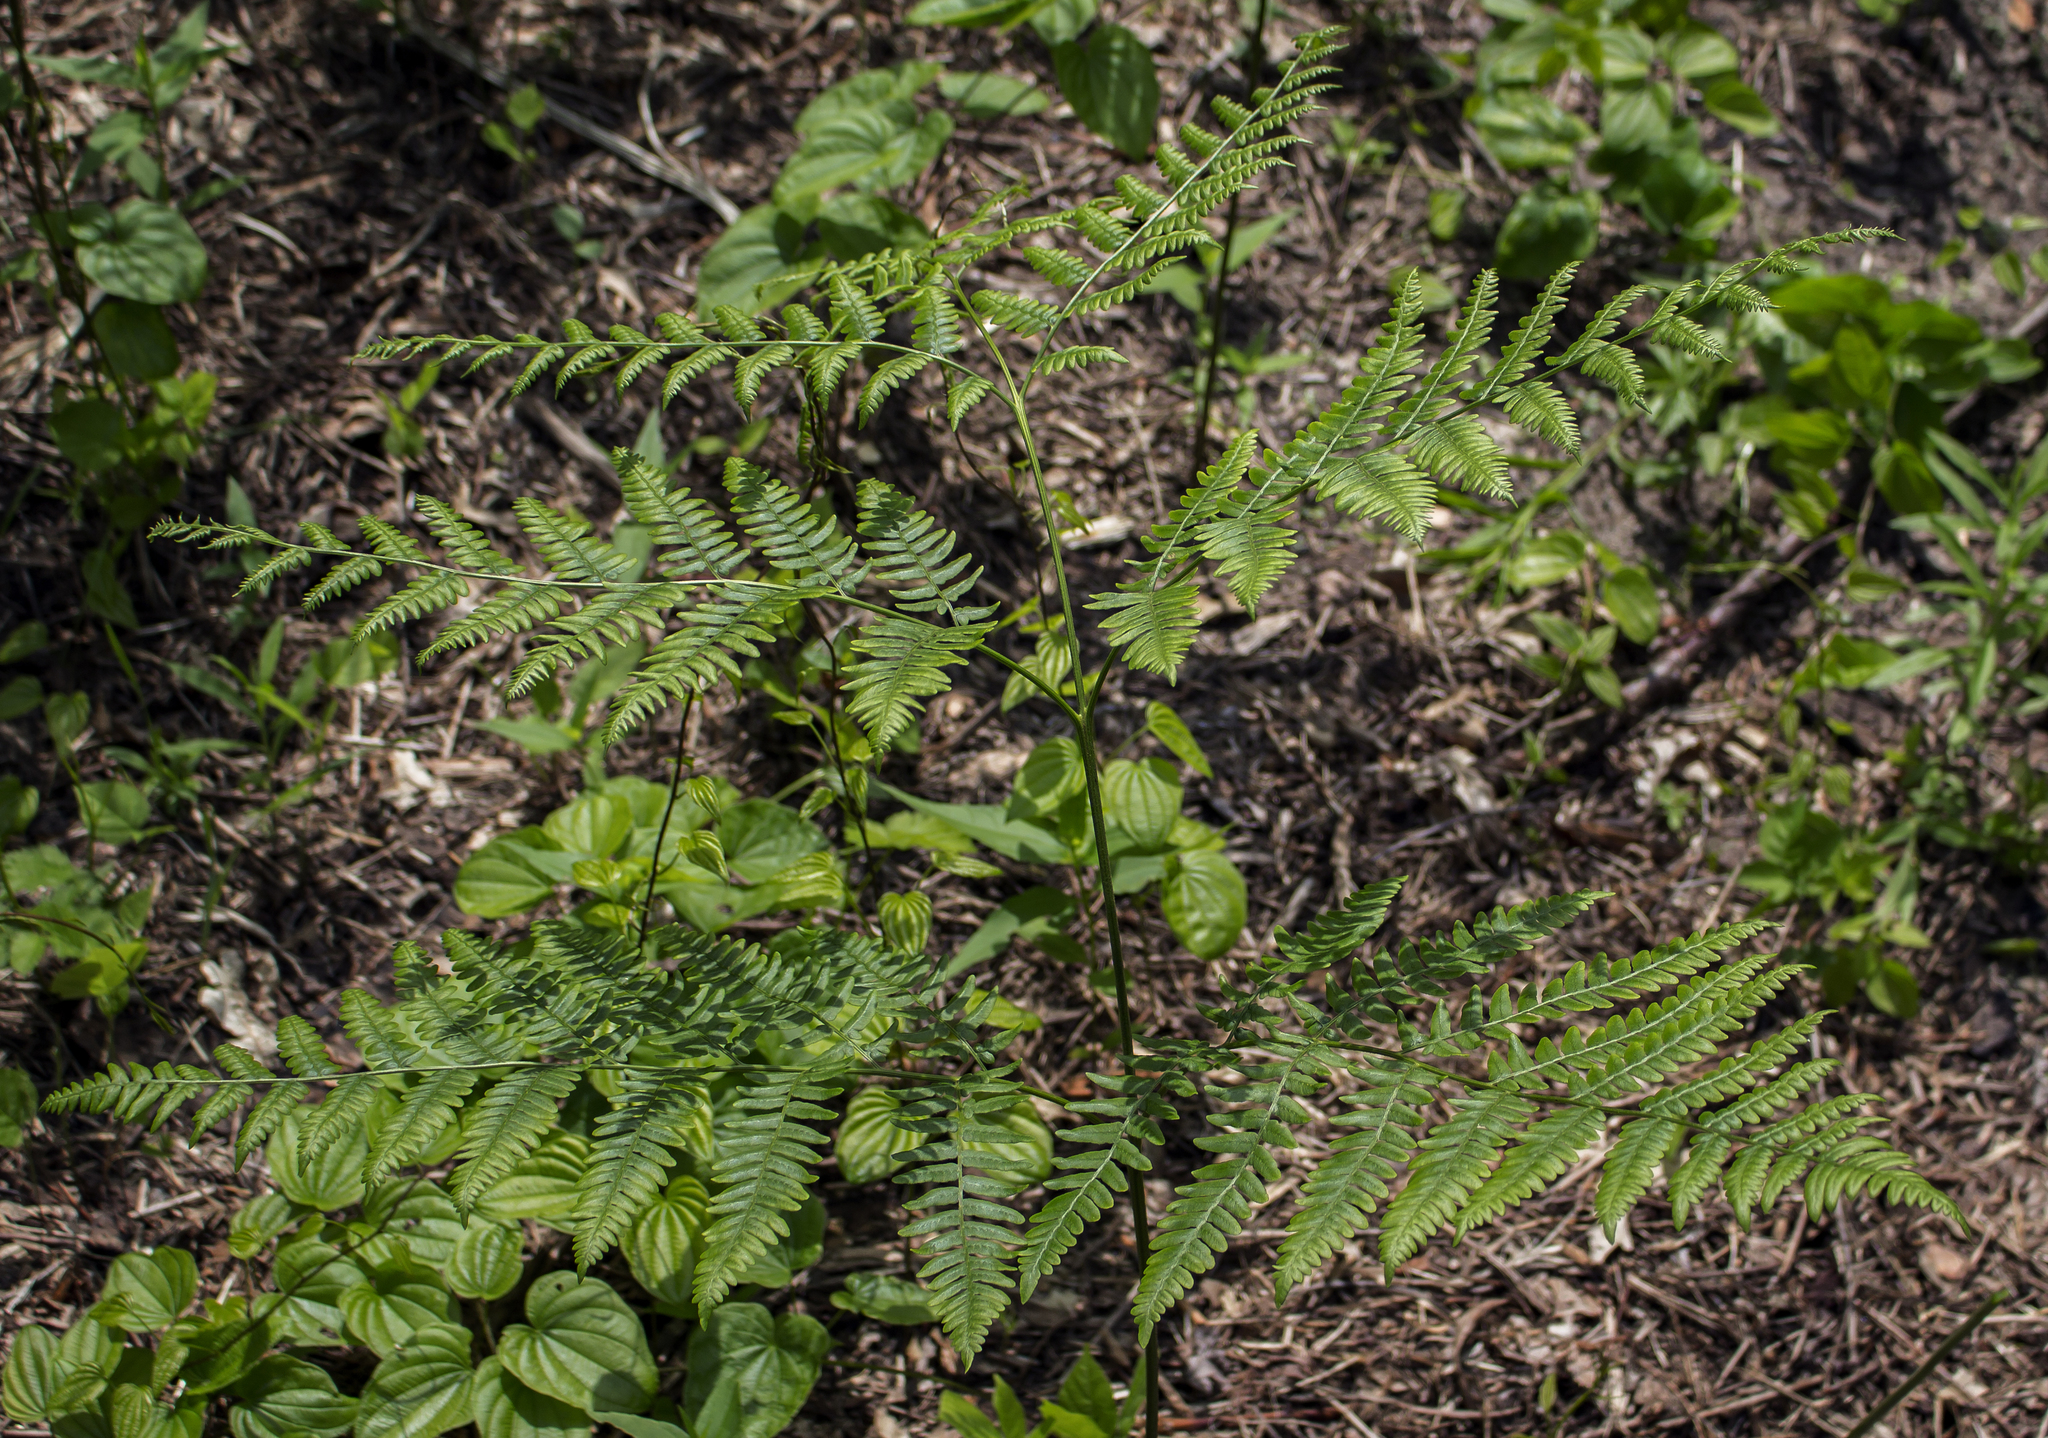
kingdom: Plantae
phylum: Tracheophyta
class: Polypodiopsida
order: Polypodiales
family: Dennstaedtiaceae
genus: Pteridium
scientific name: Pteridium aquilinum
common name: Bracken
